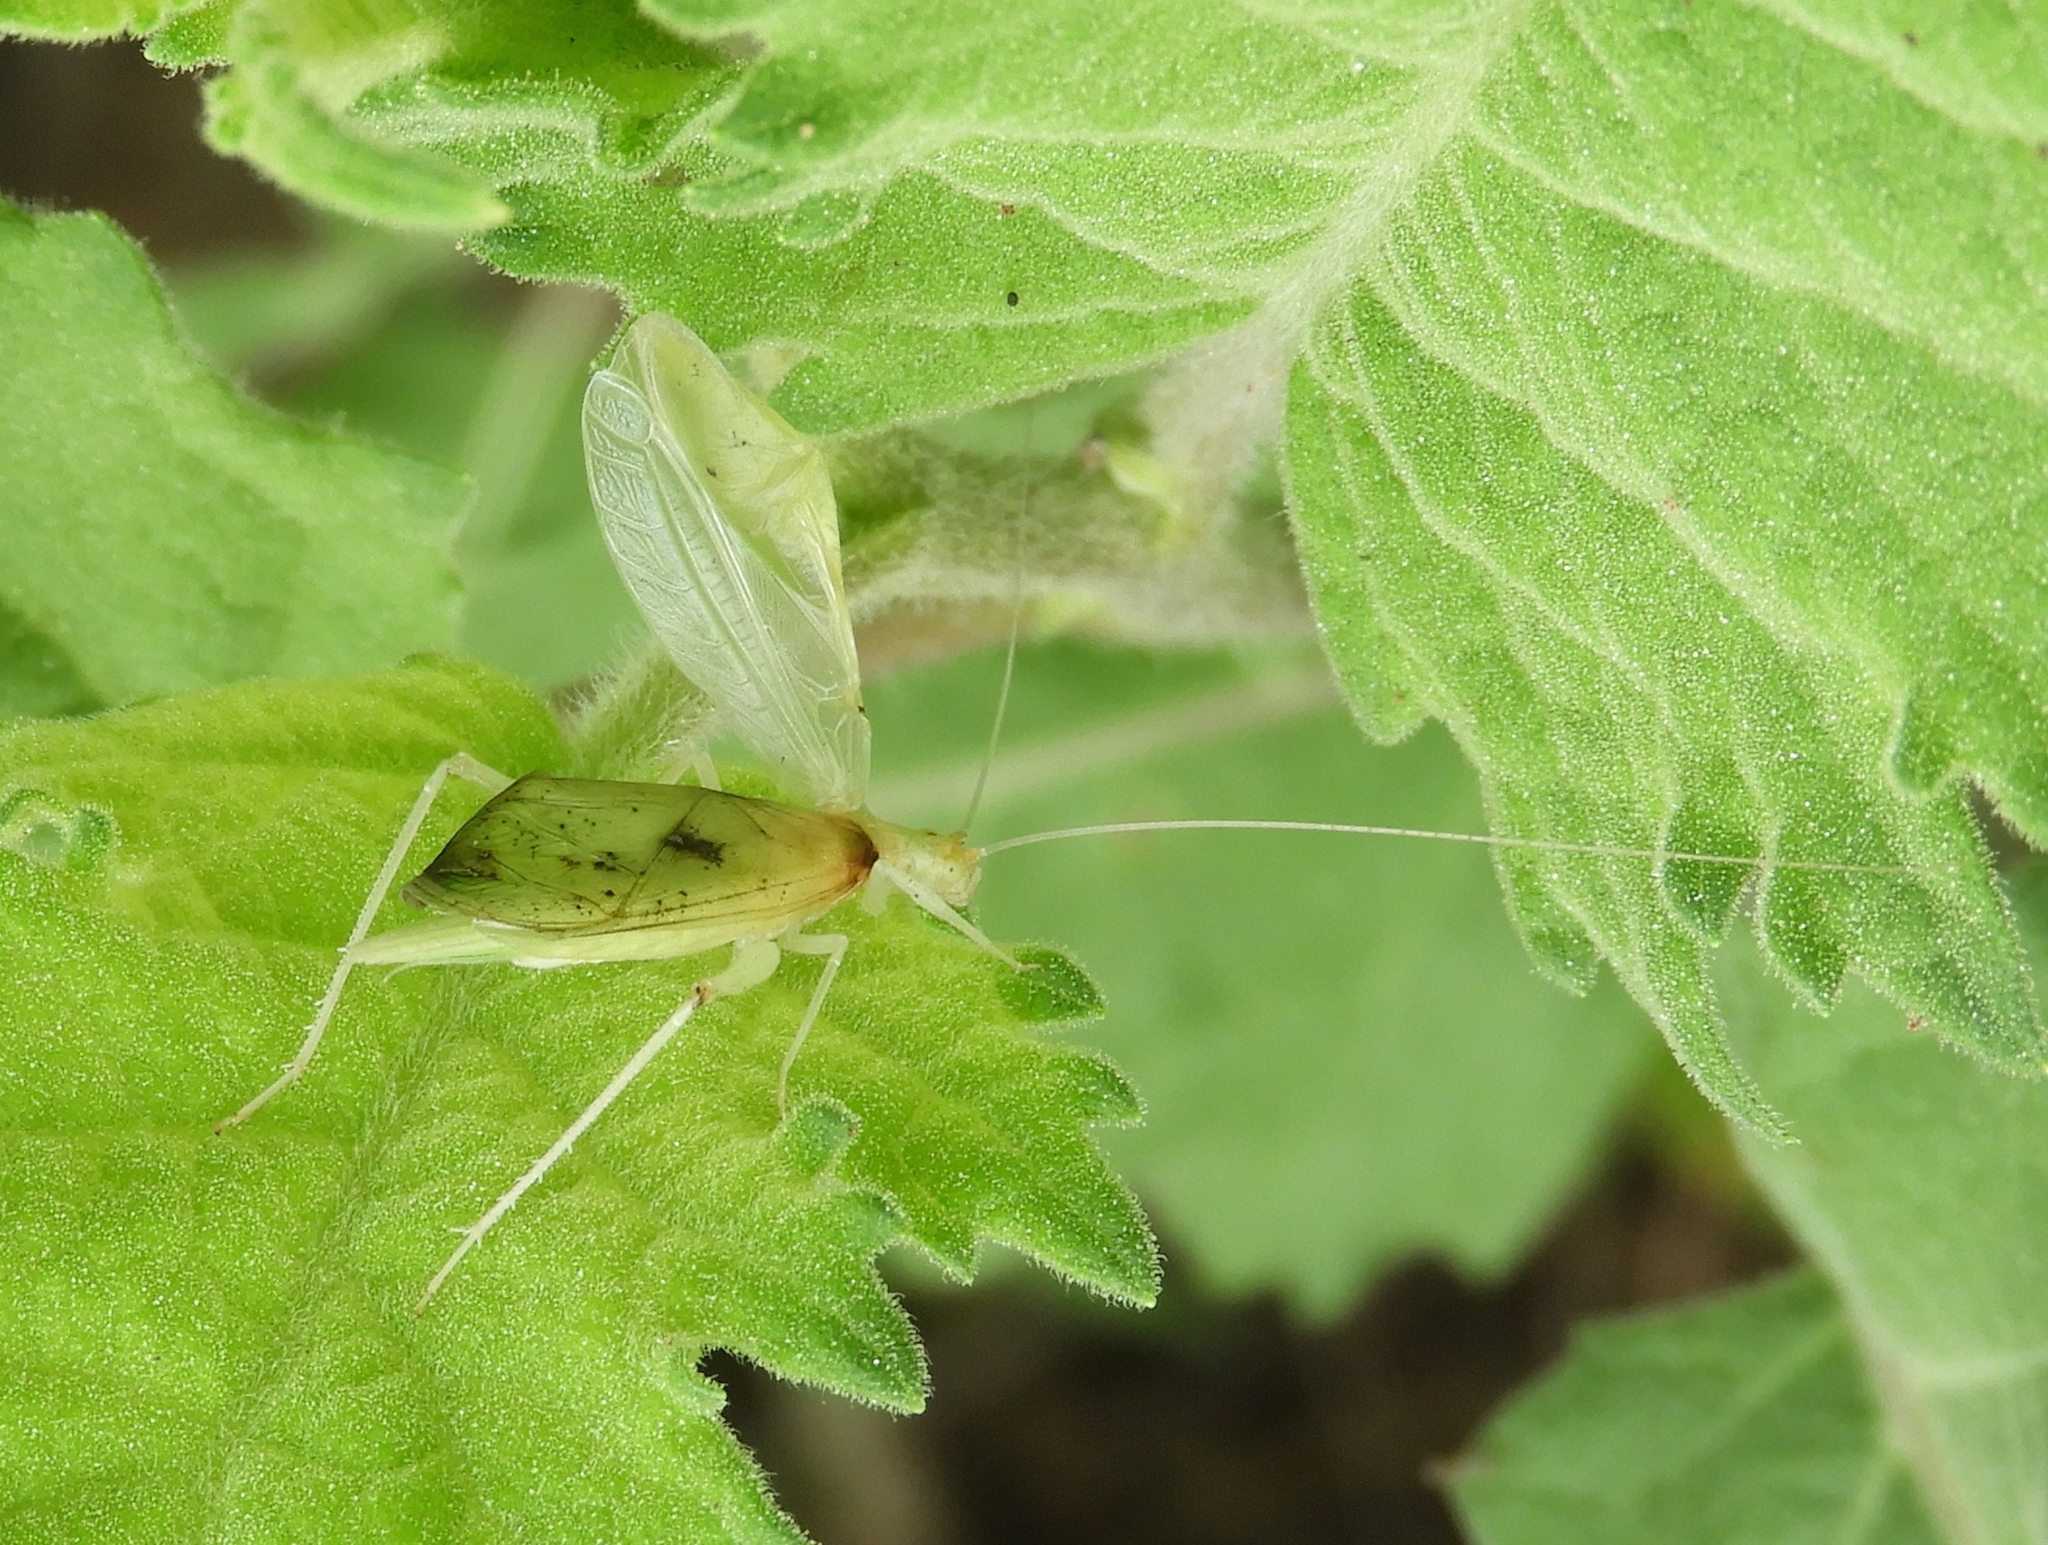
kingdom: Animalia
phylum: Arthropoda
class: Insecta
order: Orthoptera
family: Gryllidae
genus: Oecanthus
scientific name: Oecanthus
